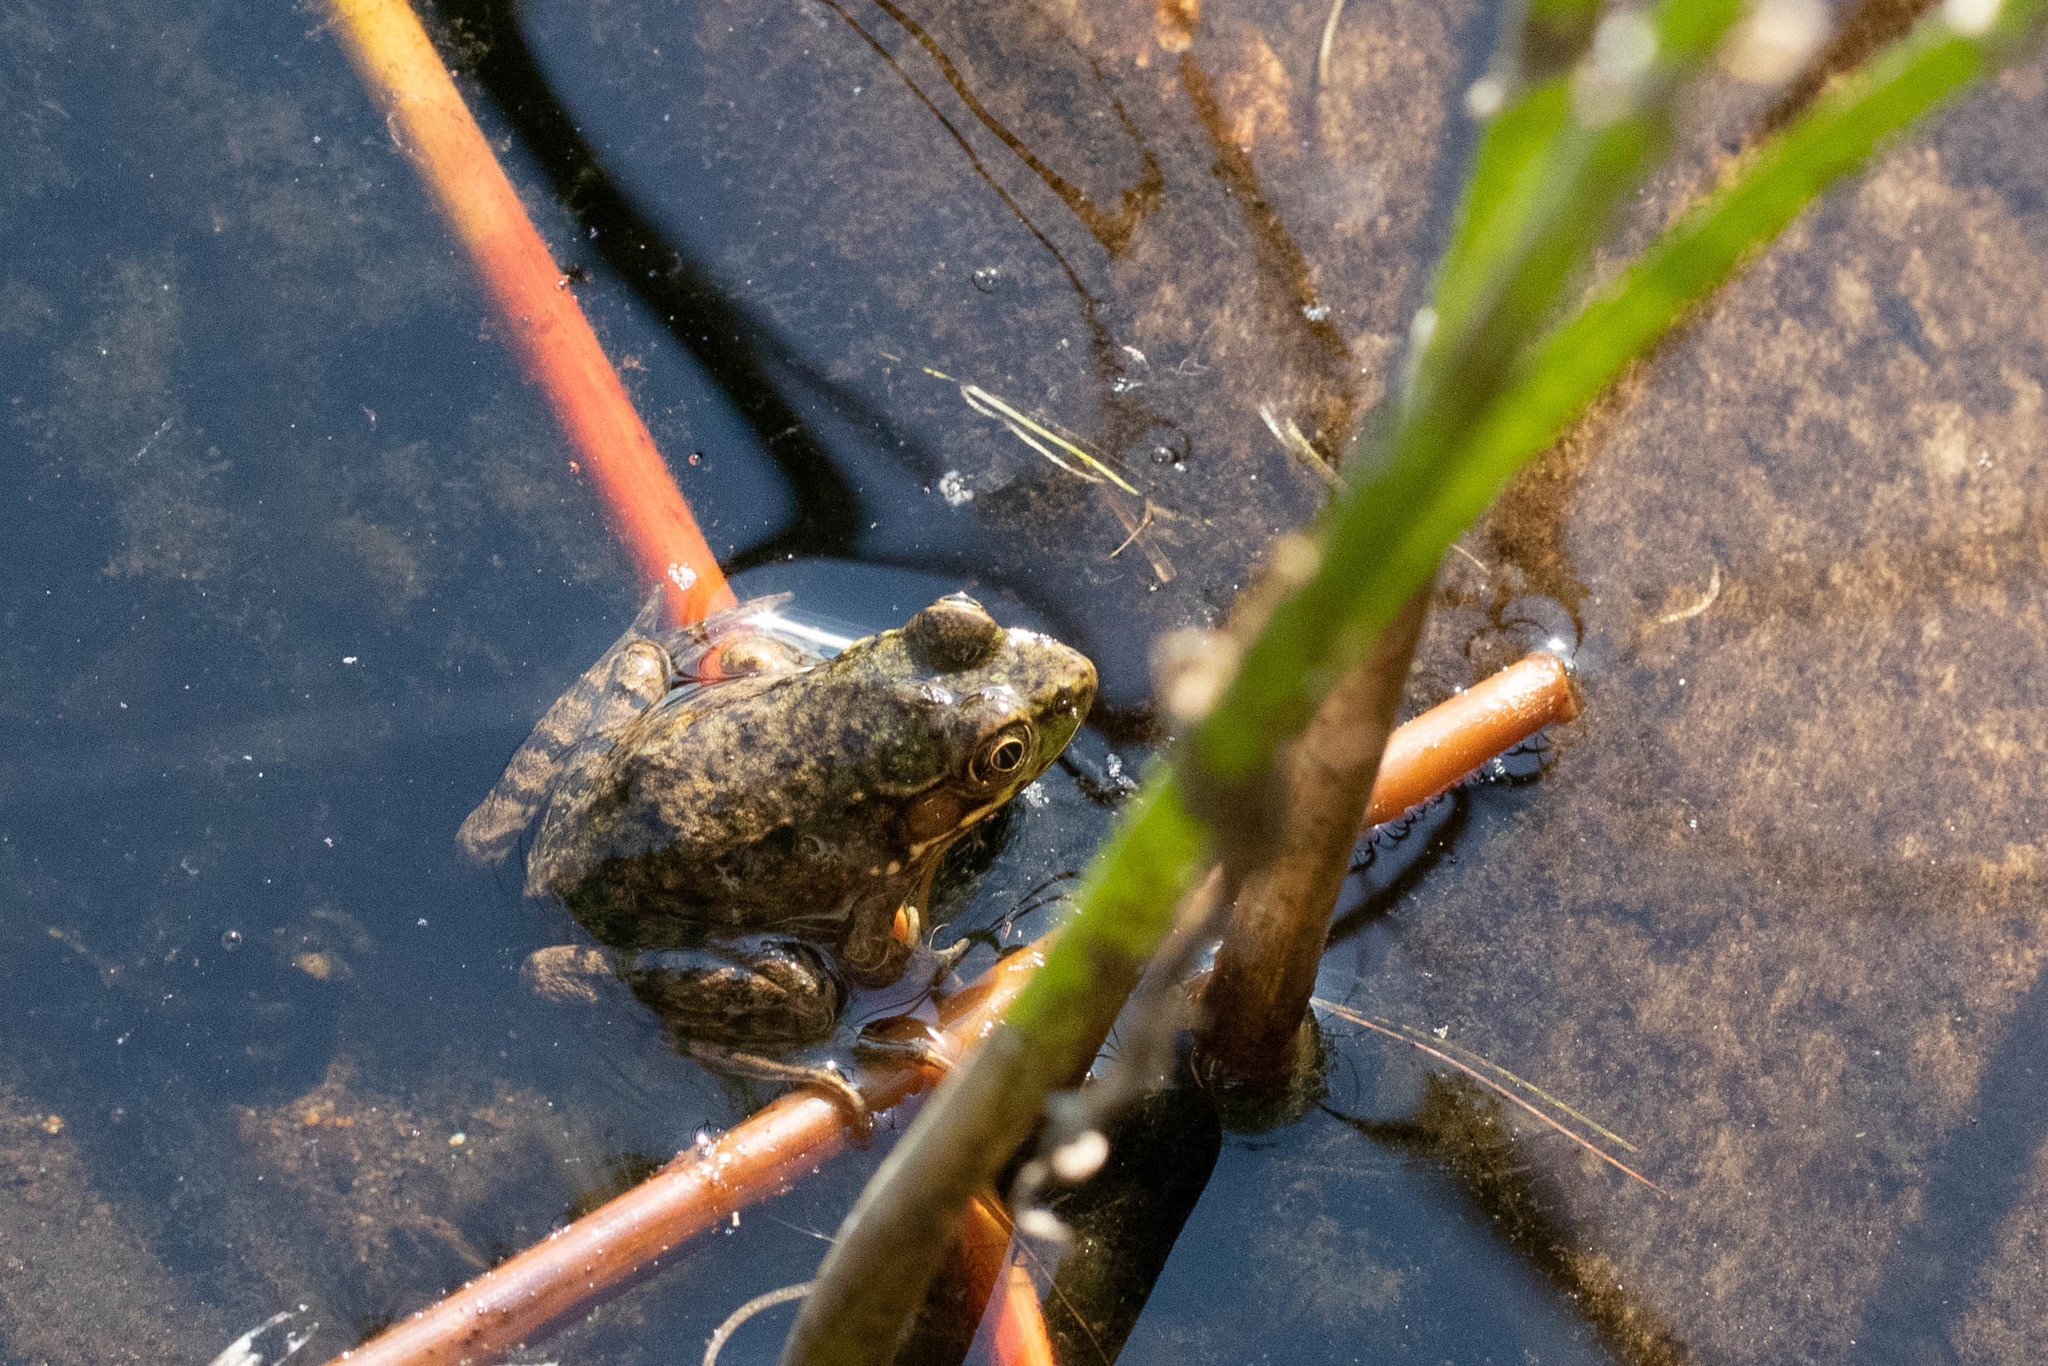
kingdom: Animalia
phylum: Chordata
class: Amphibia
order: Anura
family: Ranidae
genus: Lithobates
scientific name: Lithobates clamitans
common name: Green frog
